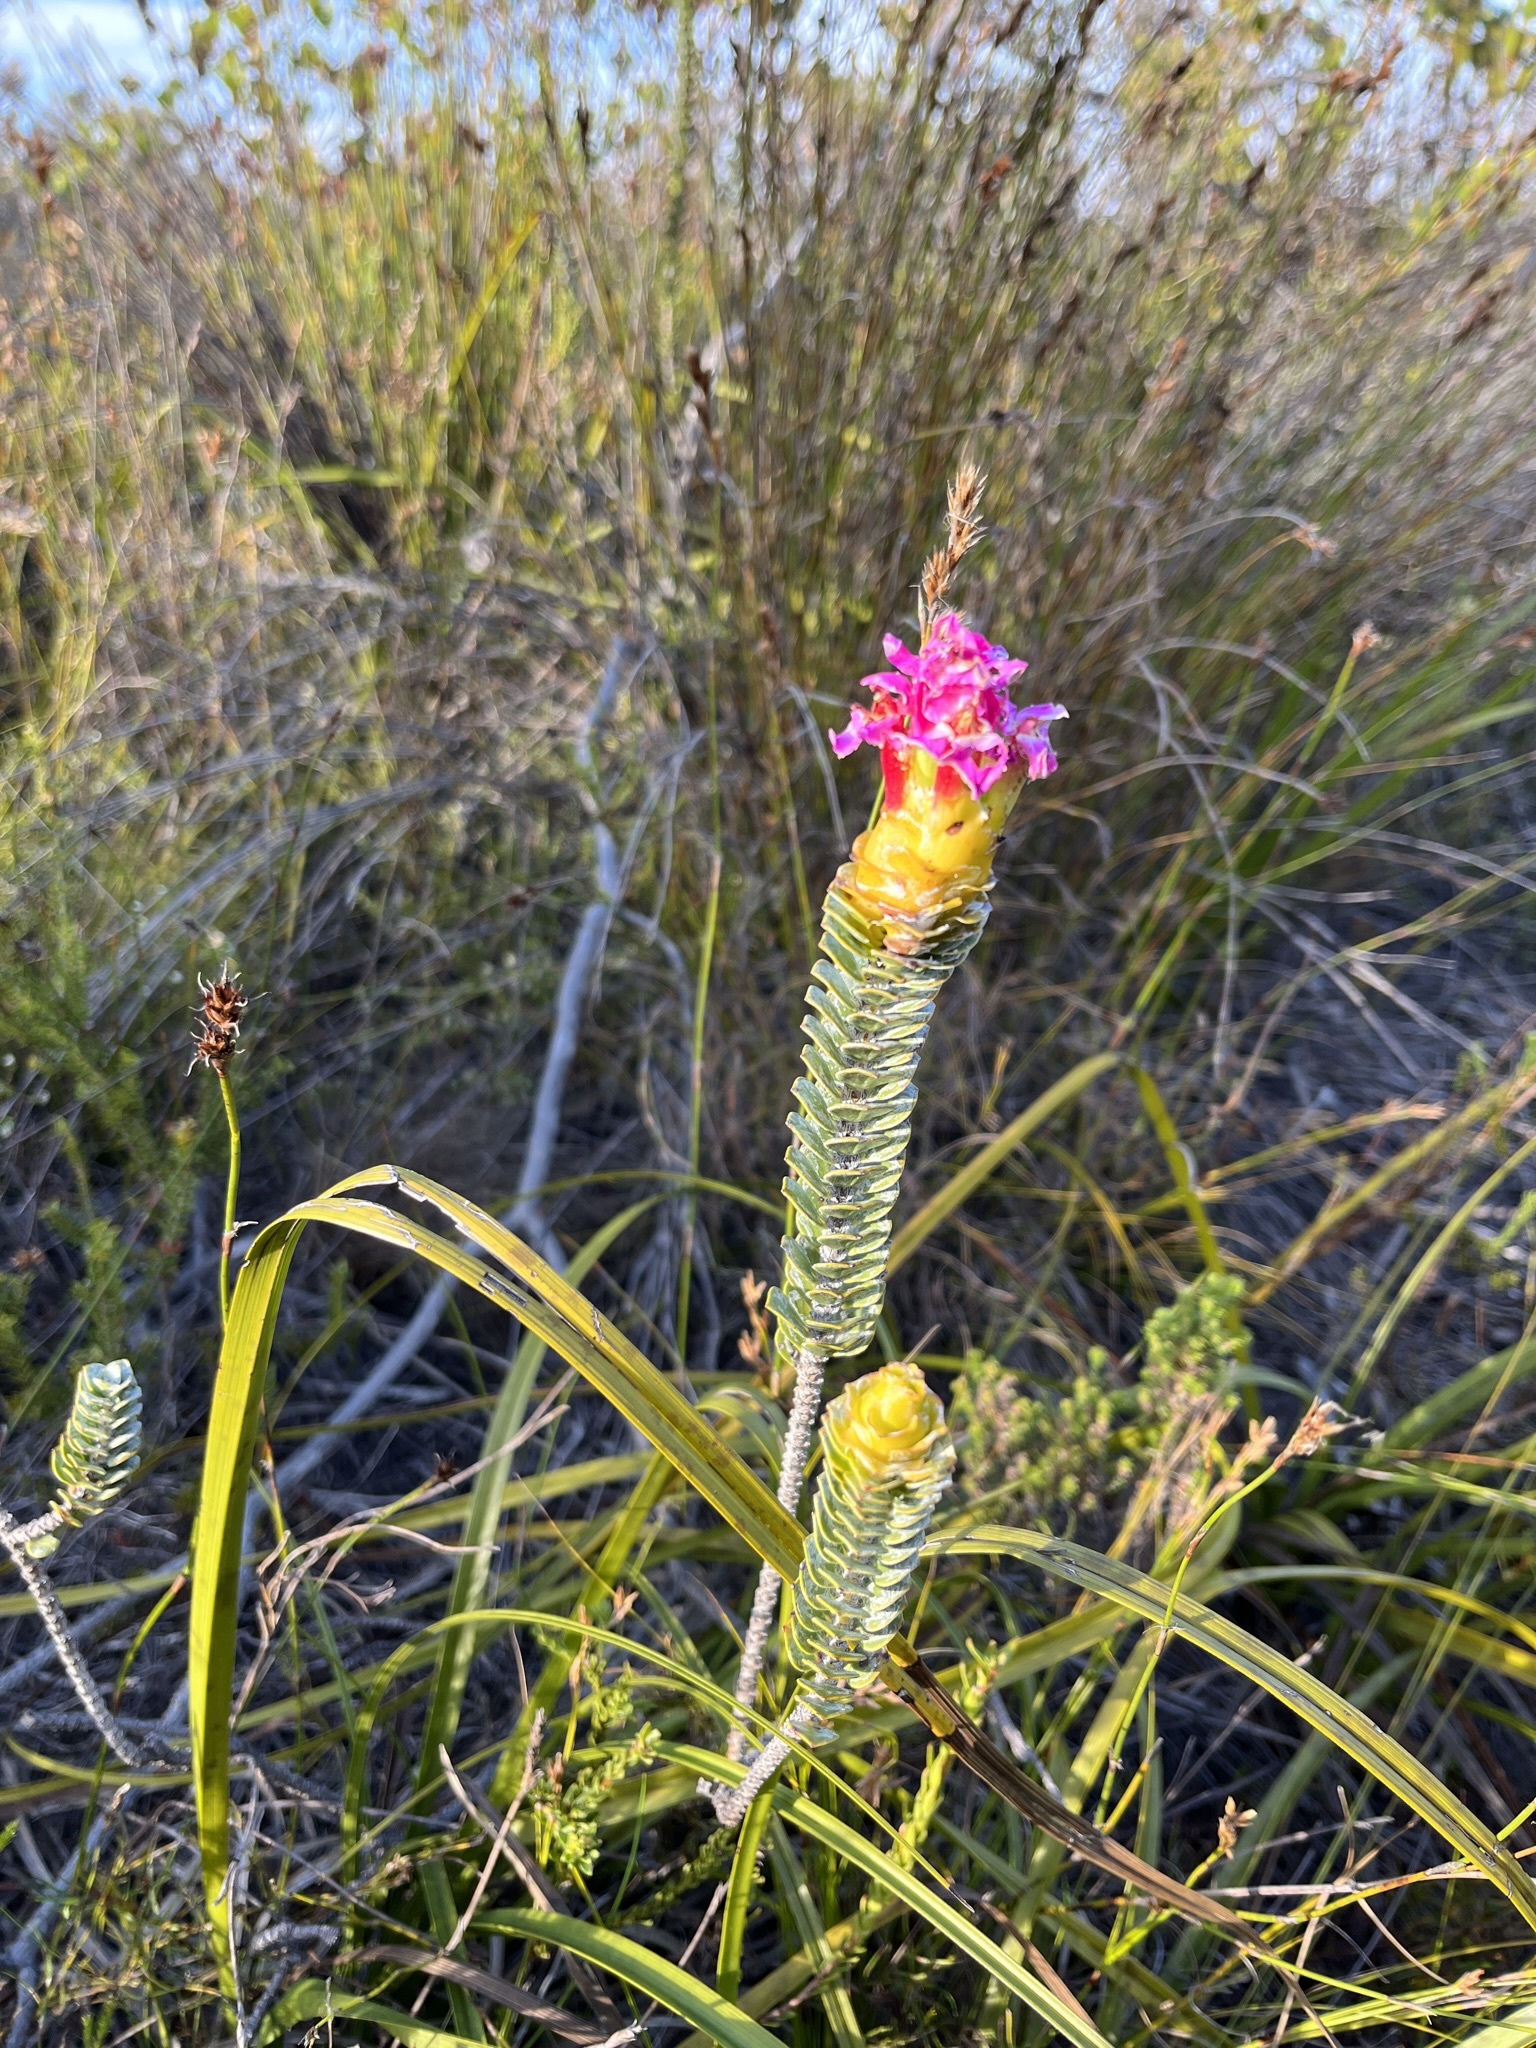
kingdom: Plantae
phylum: Tracheophyta
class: Magnoliopsida
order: Myrtales
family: Penaeaceae
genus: Saltera
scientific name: Saltera sarcocolla
